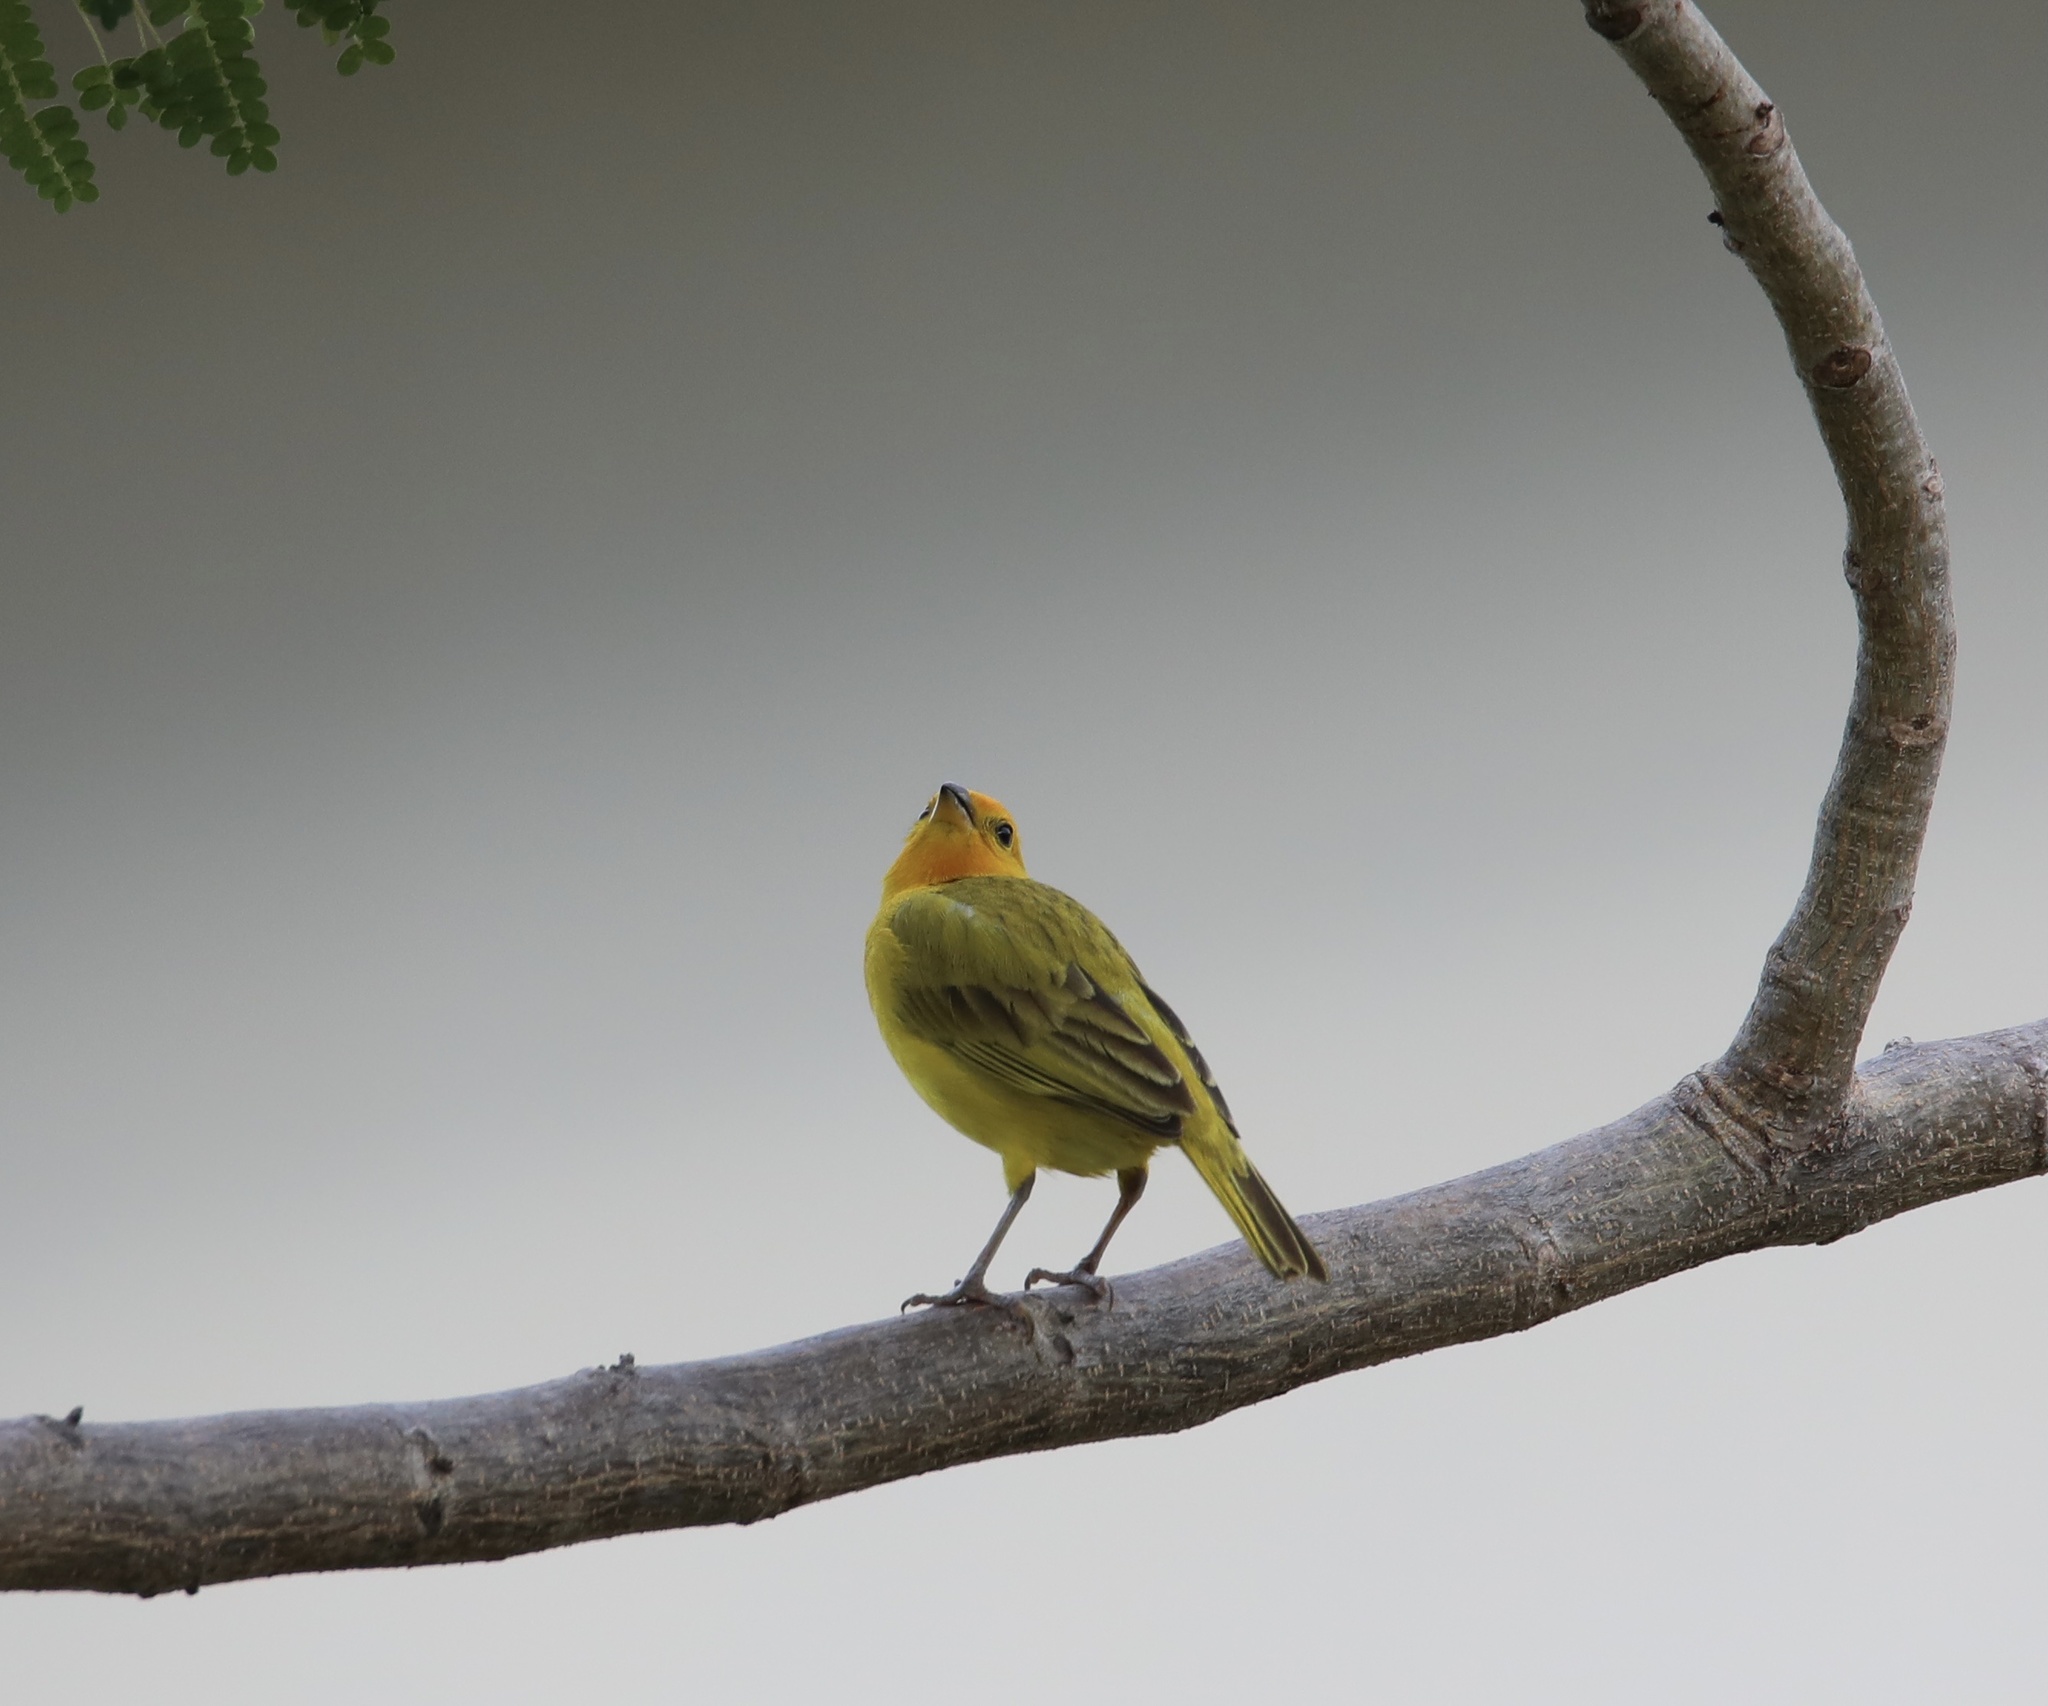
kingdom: Animalia
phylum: Chordata
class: Aves
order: Passeriformes
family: Thraupidae
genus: Sicalis
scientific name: Sicalis flaveola
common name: Saffron finch
